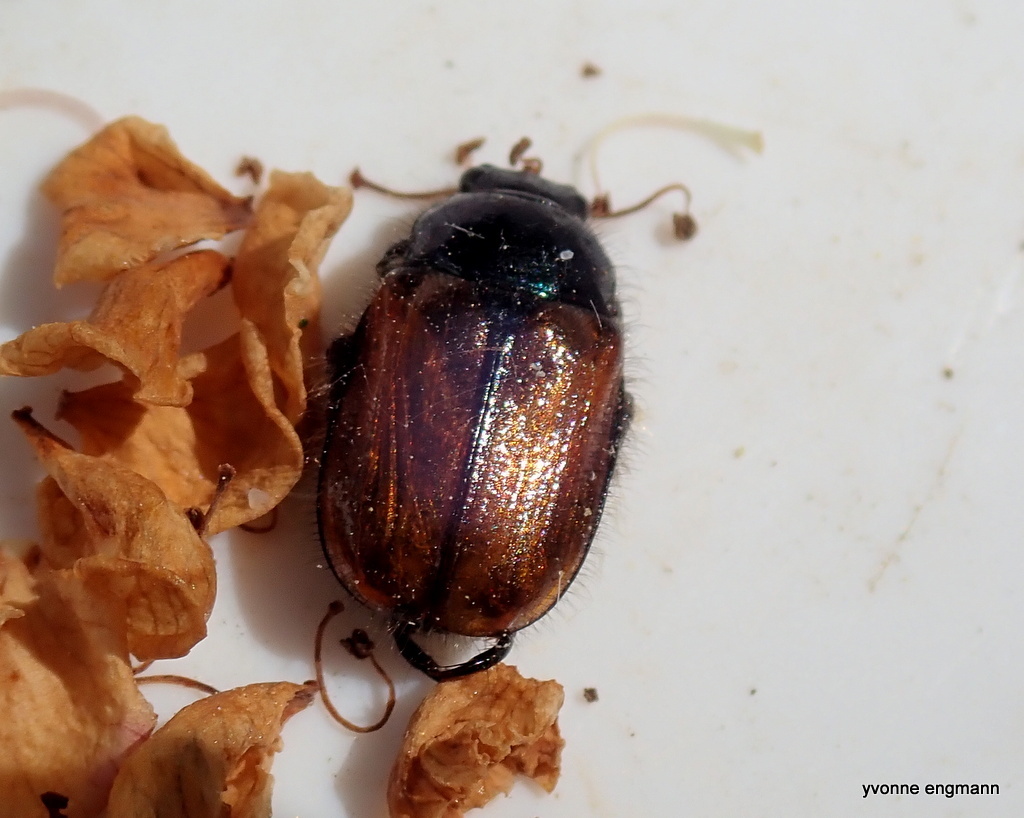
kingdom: Animalia
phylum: Arthropoda
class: Insecta
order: Coleoptera
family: Scarabaeidae
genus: Phyllopertha
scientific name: Phyllopertha horticola
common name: Garden chafer
